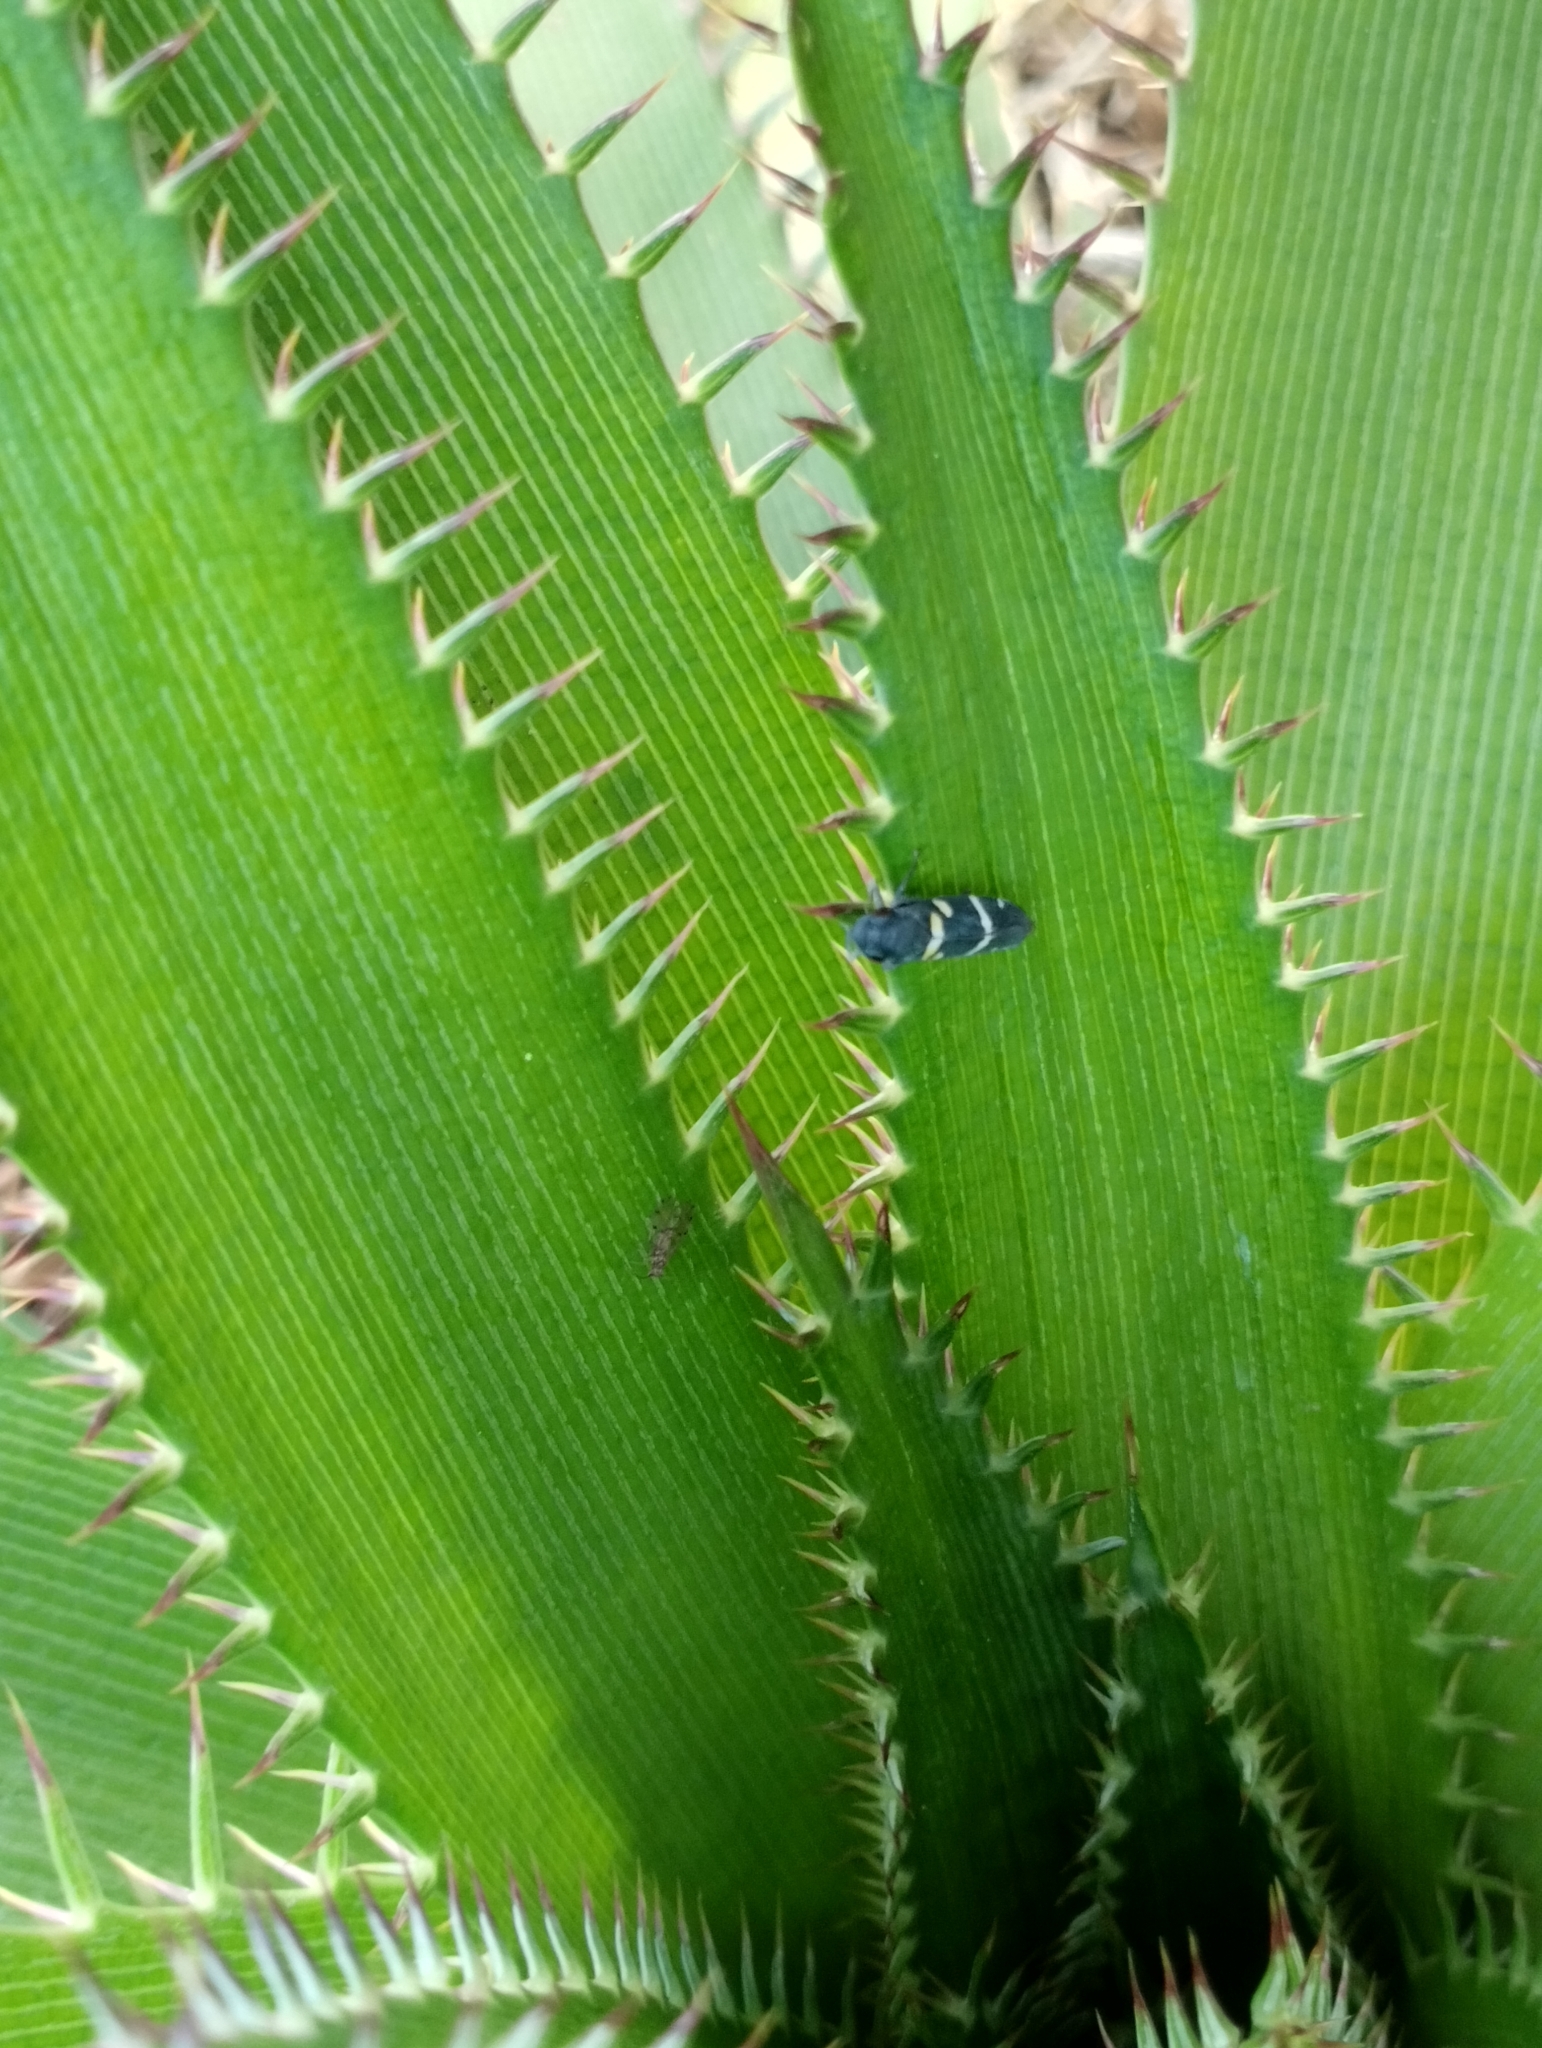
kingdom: Animalia
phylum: Arthropoda
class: Insecta
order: Hemiptera
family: Cicadellidae
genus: Balacha
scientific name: Balacha similis
